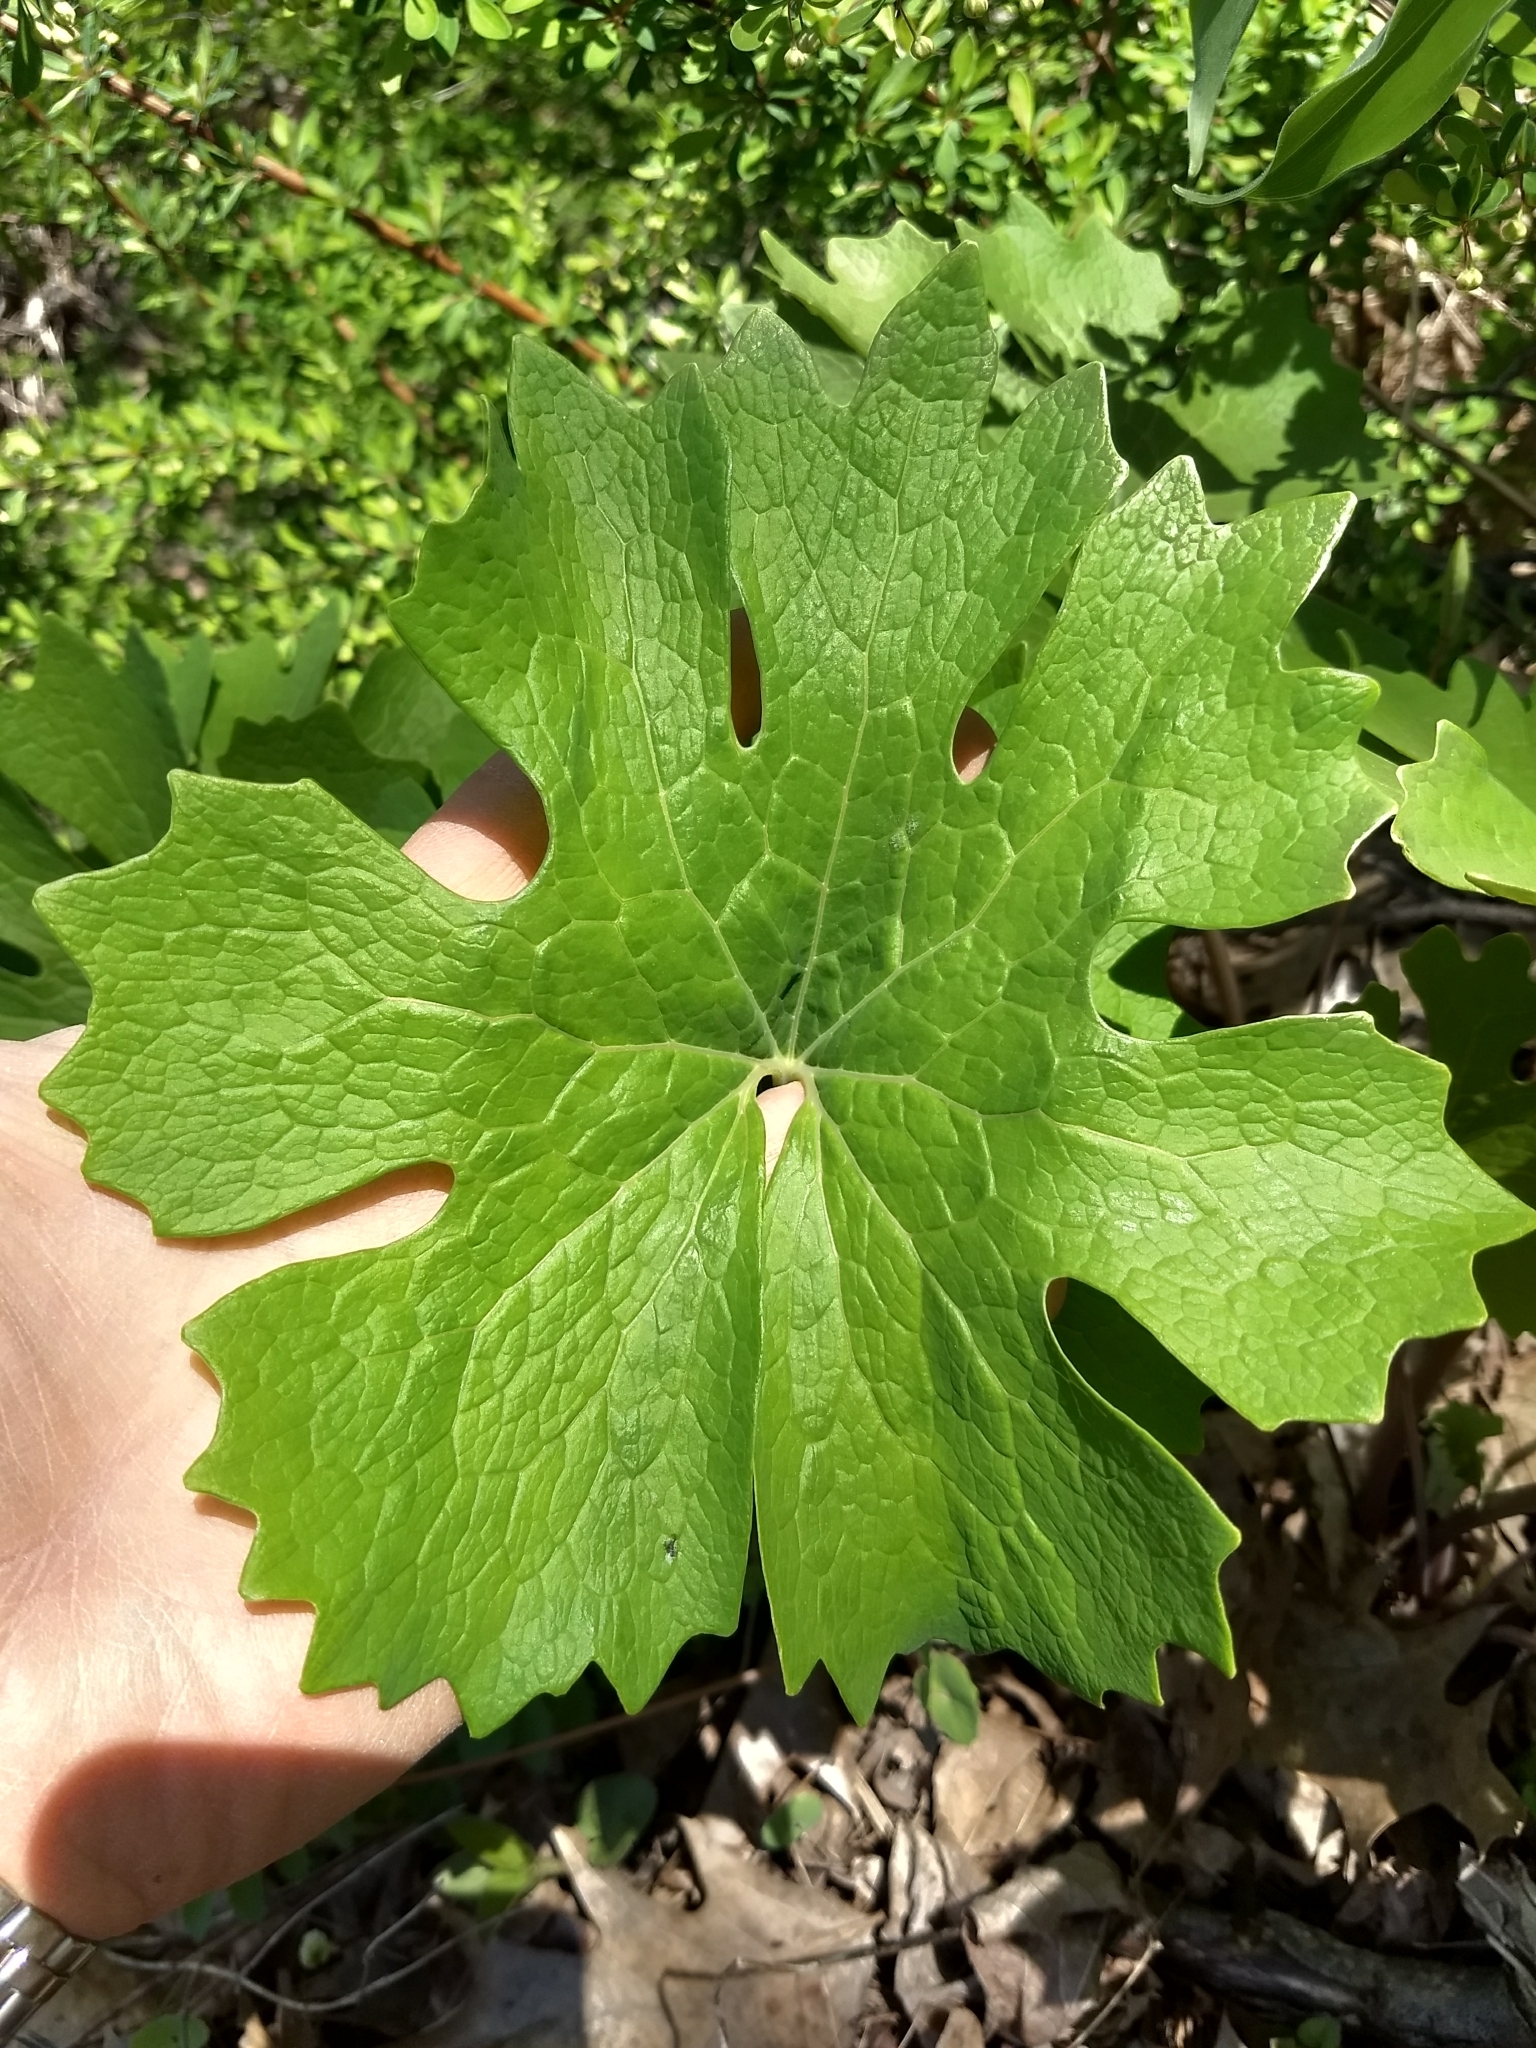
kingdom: Plantae
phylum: Tracheophyta
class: Magnoliopsida
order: Ranunculales
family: Berberidaceae
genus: Podophyllum
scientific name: Podophyllum peltatum
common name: Wild mandrake
